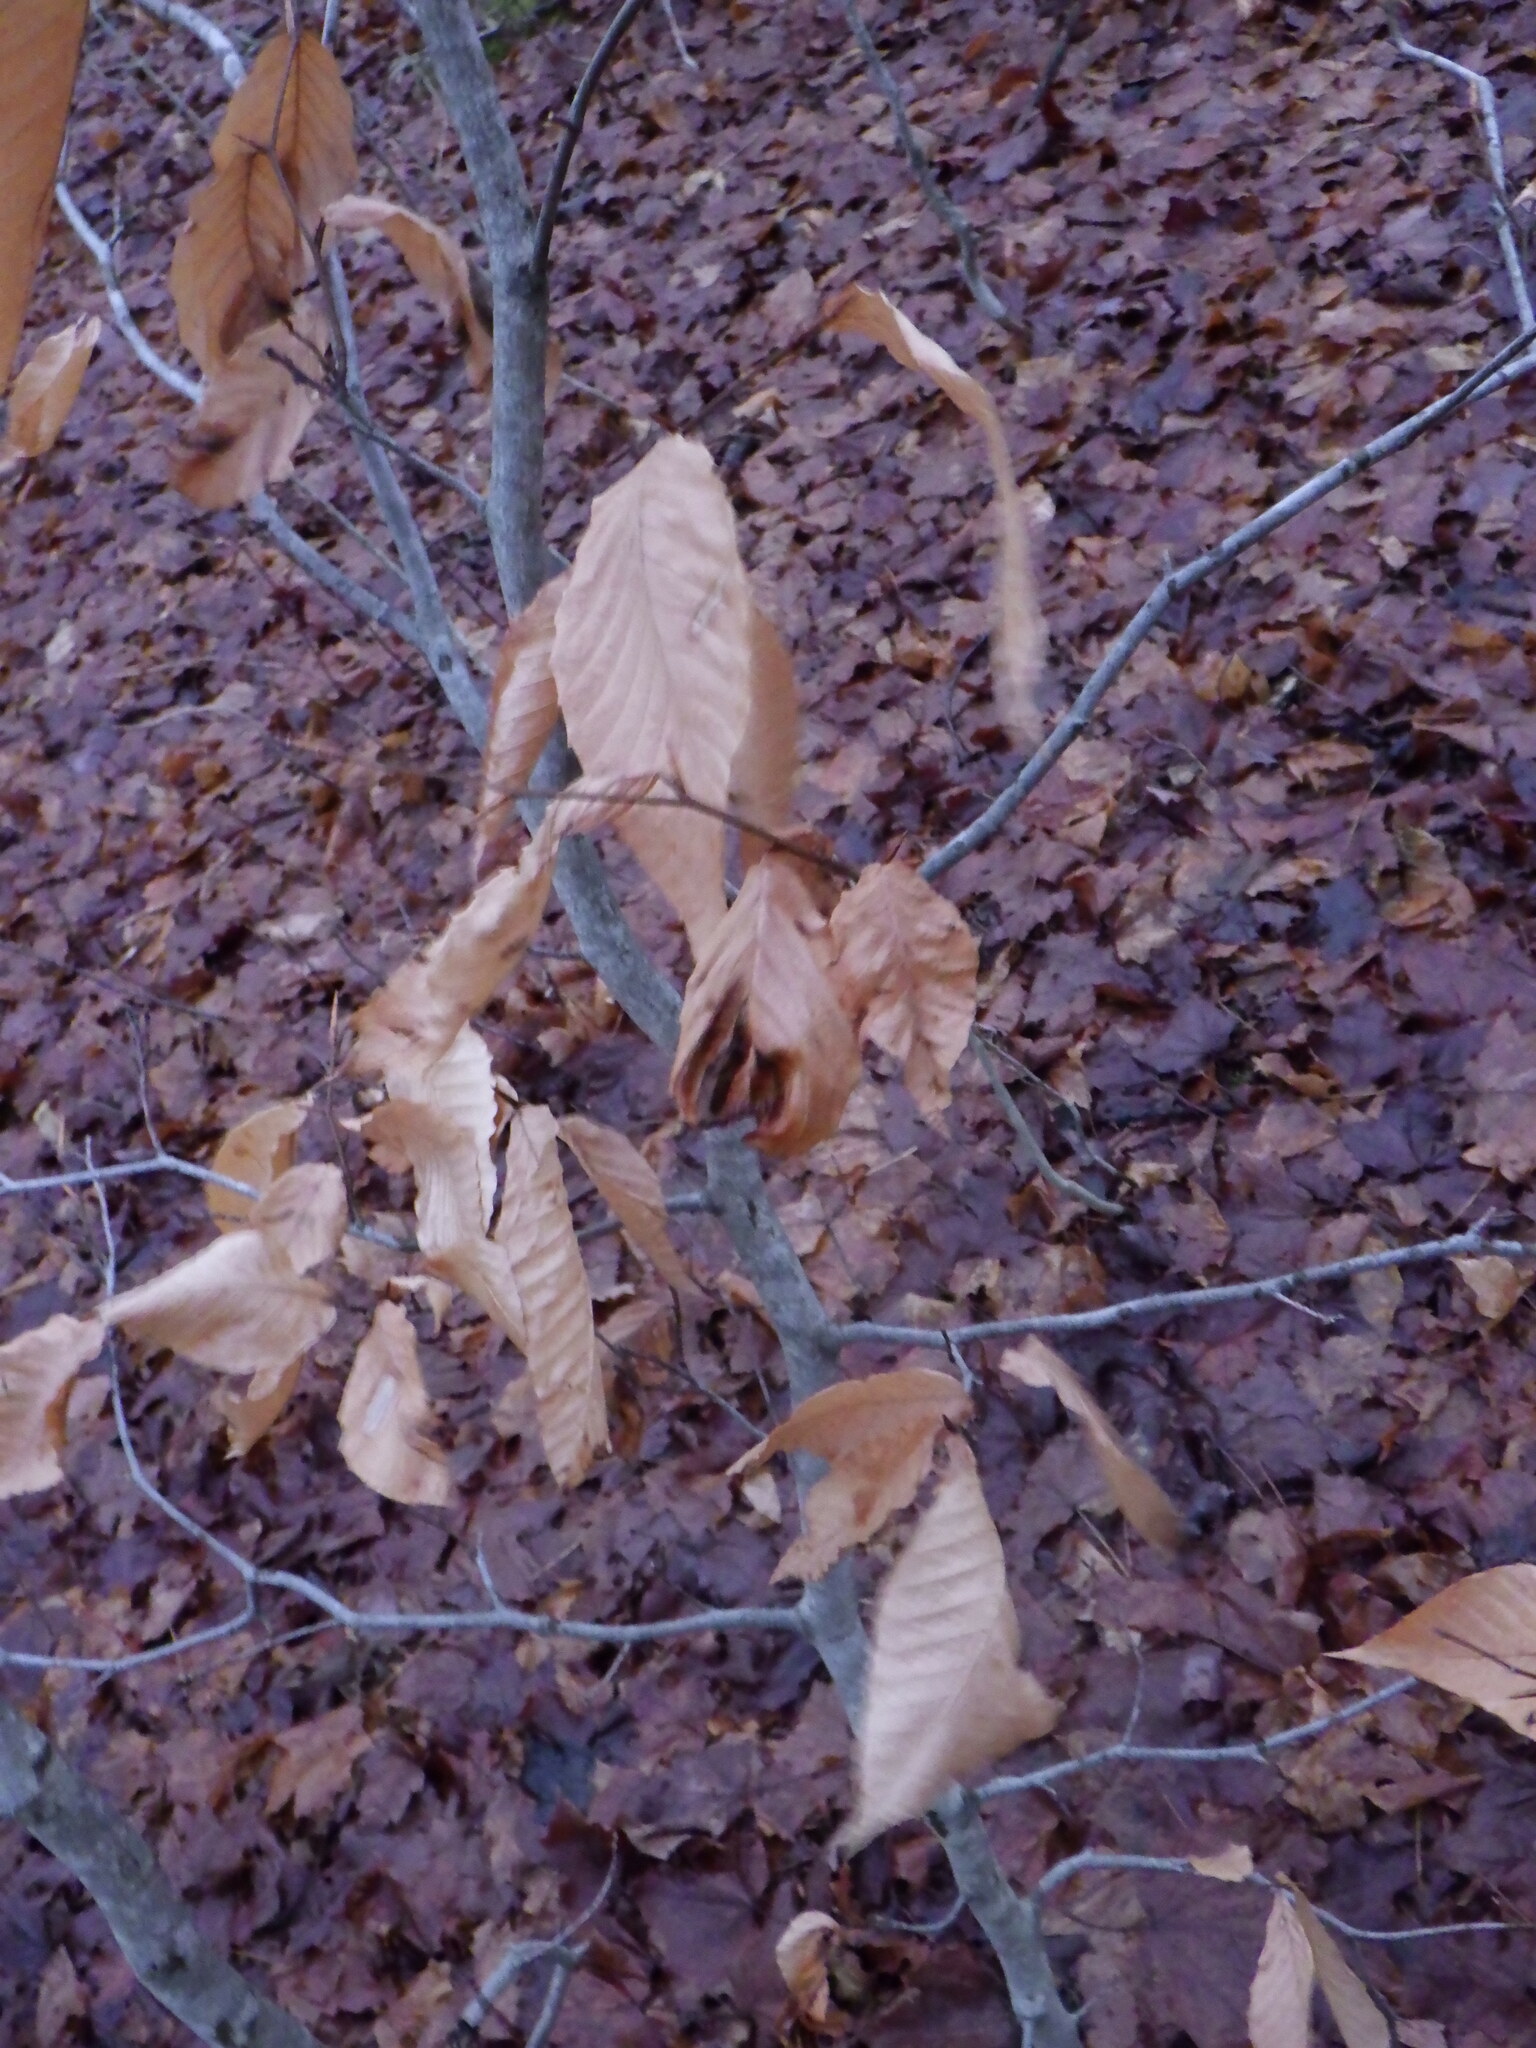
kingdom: Plantae
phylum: Tracheophyta
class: Magnoliopsida
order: Fagales
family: Fagaceae
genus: Fagus
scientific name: Fagus grandifolia
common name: American beech
